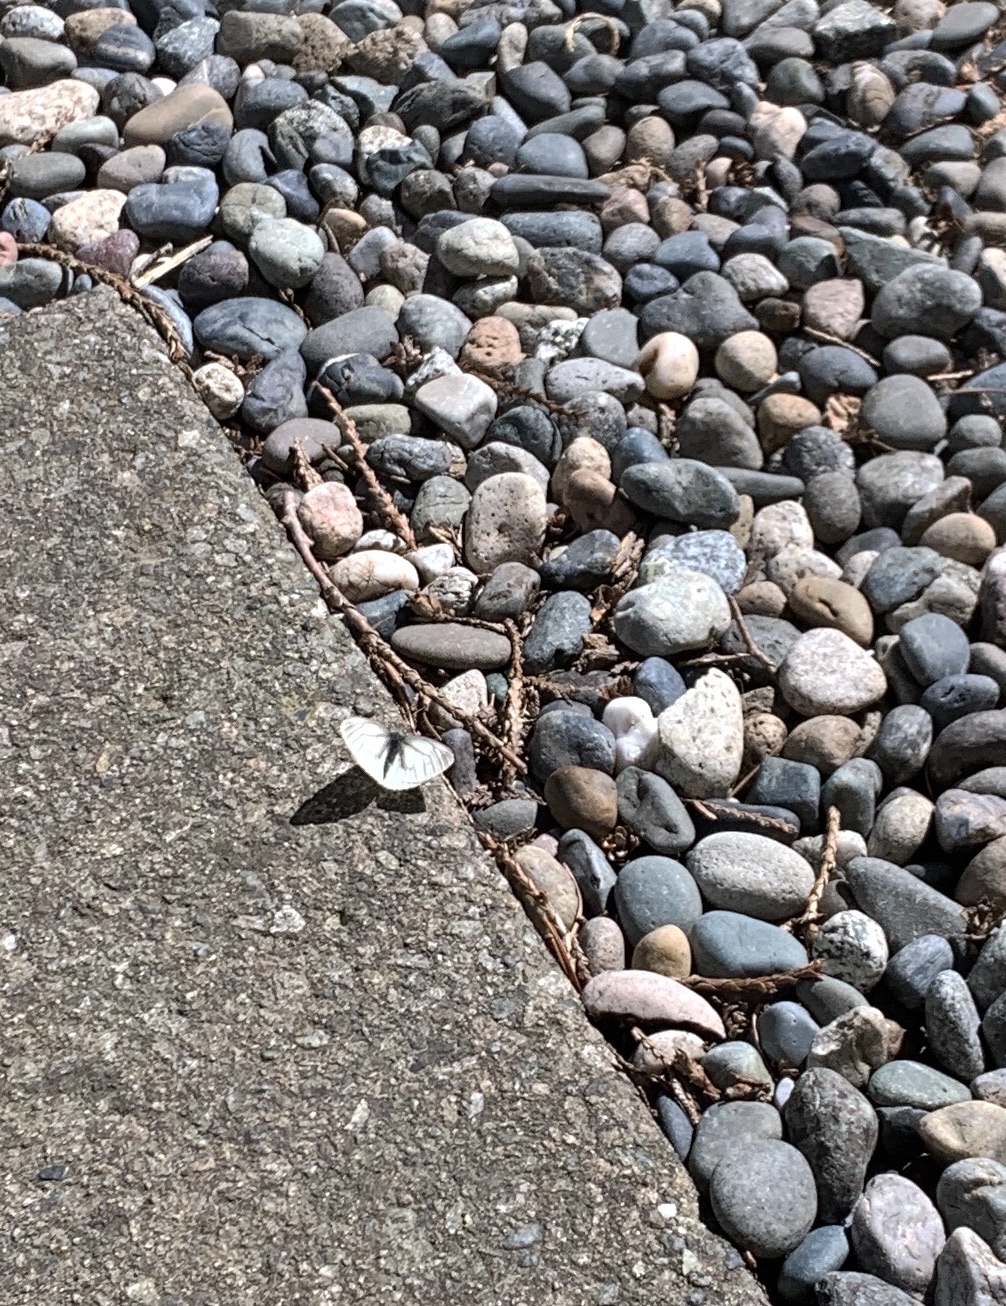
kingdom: Animalia
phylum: Arthropoda
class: Insecta
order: Lepidoptera
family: Pieridae
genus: Pieris
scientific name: Pieris marginalis
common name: Margined white
